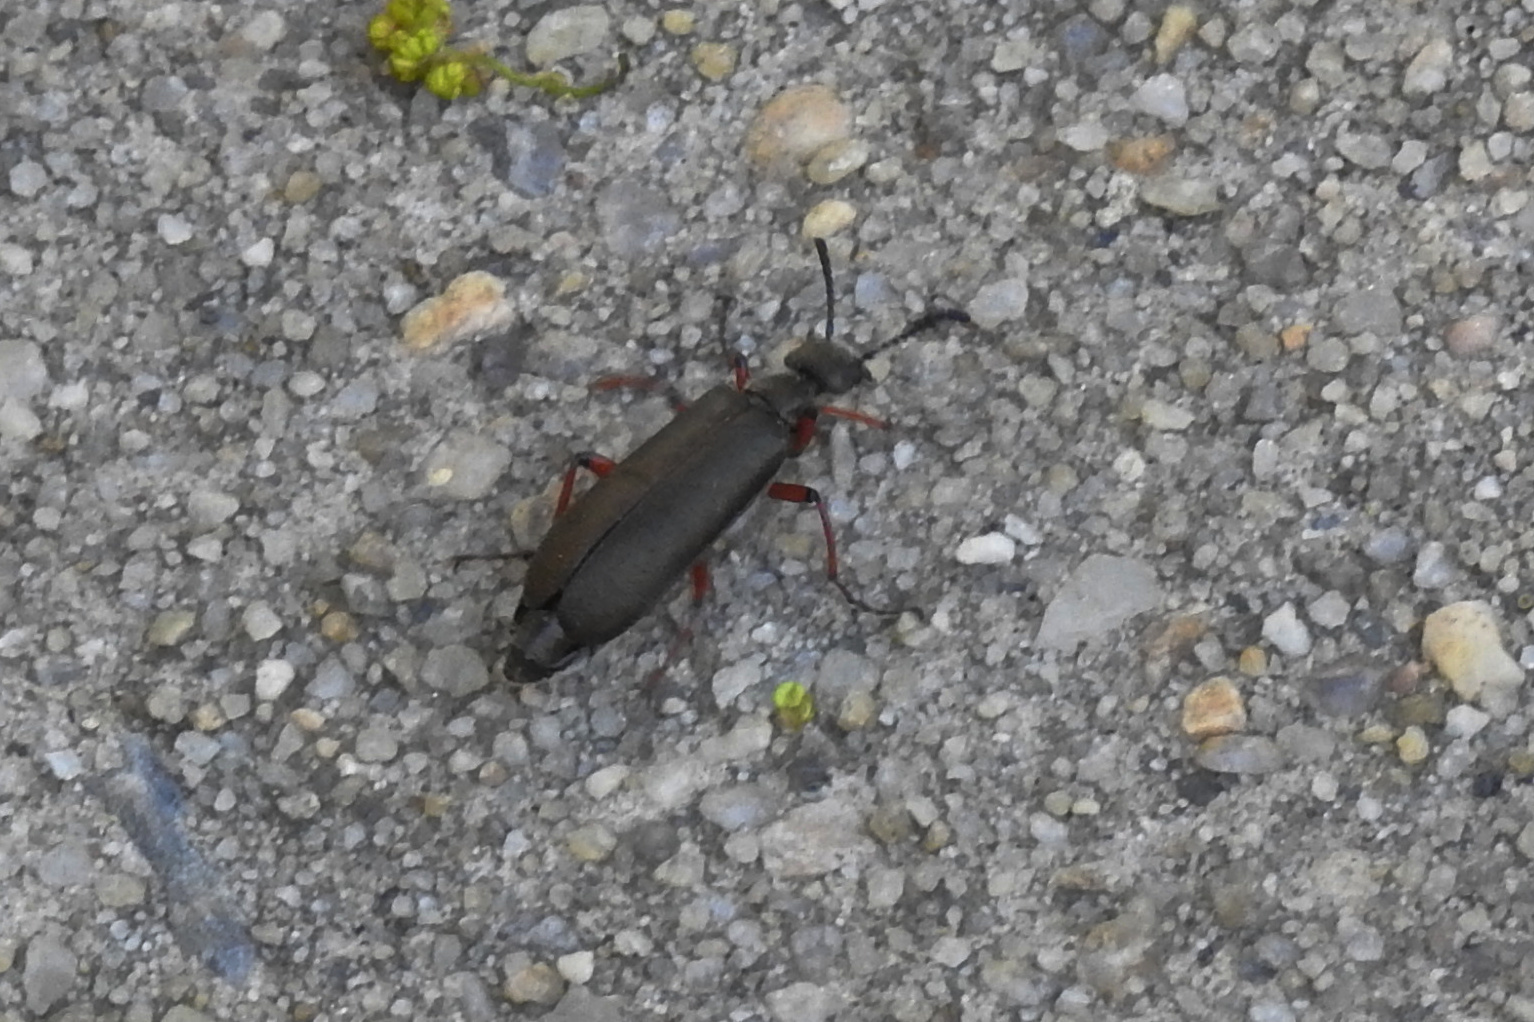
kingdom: Animalia
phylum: Arthropoda
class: Insecta
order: Coleoptera
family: Meloidae
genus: Lytta
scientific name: Lytta aenea
